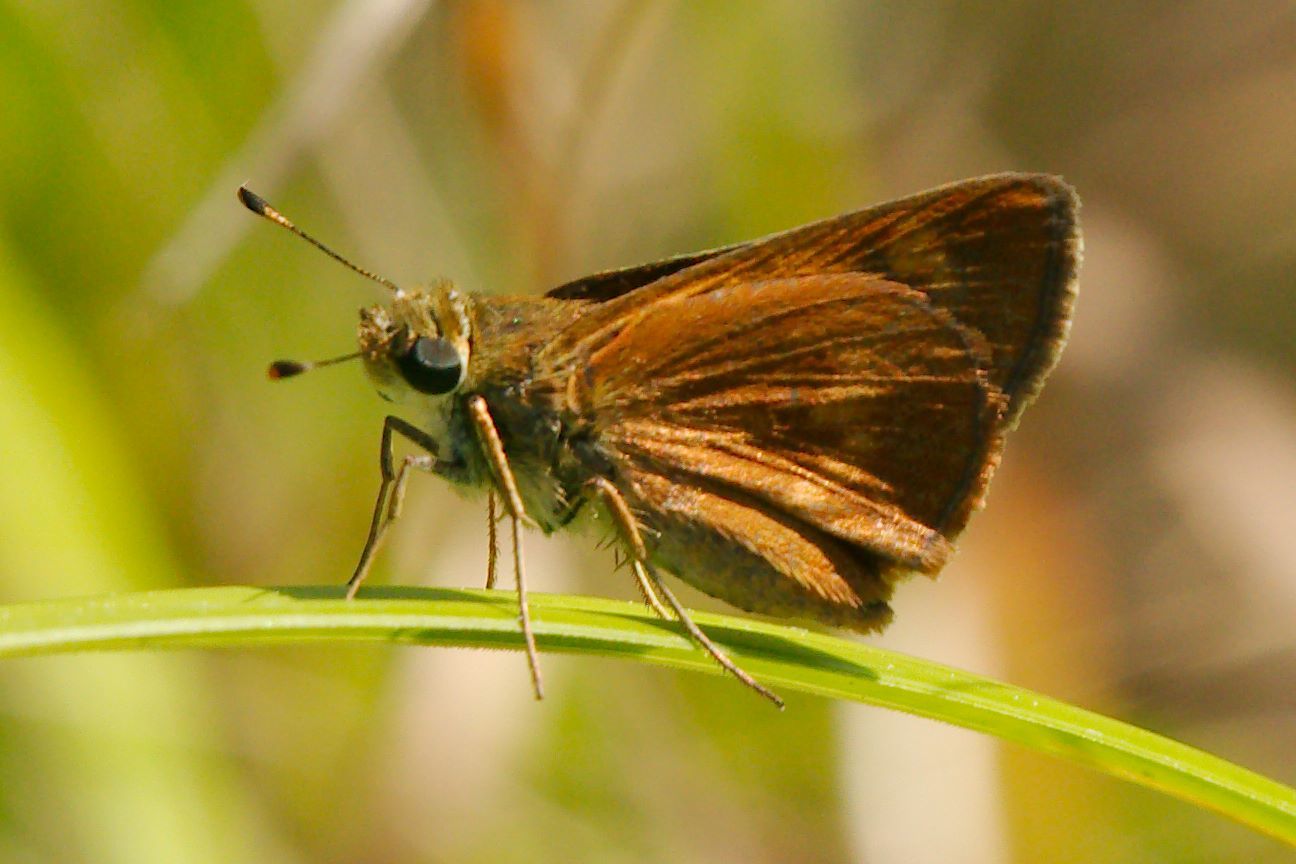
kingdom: Animalia
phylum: Arthropoda
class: Insecta
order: Lepidoptera
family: Hesperiidae
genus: Polites
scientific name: Polites otho
